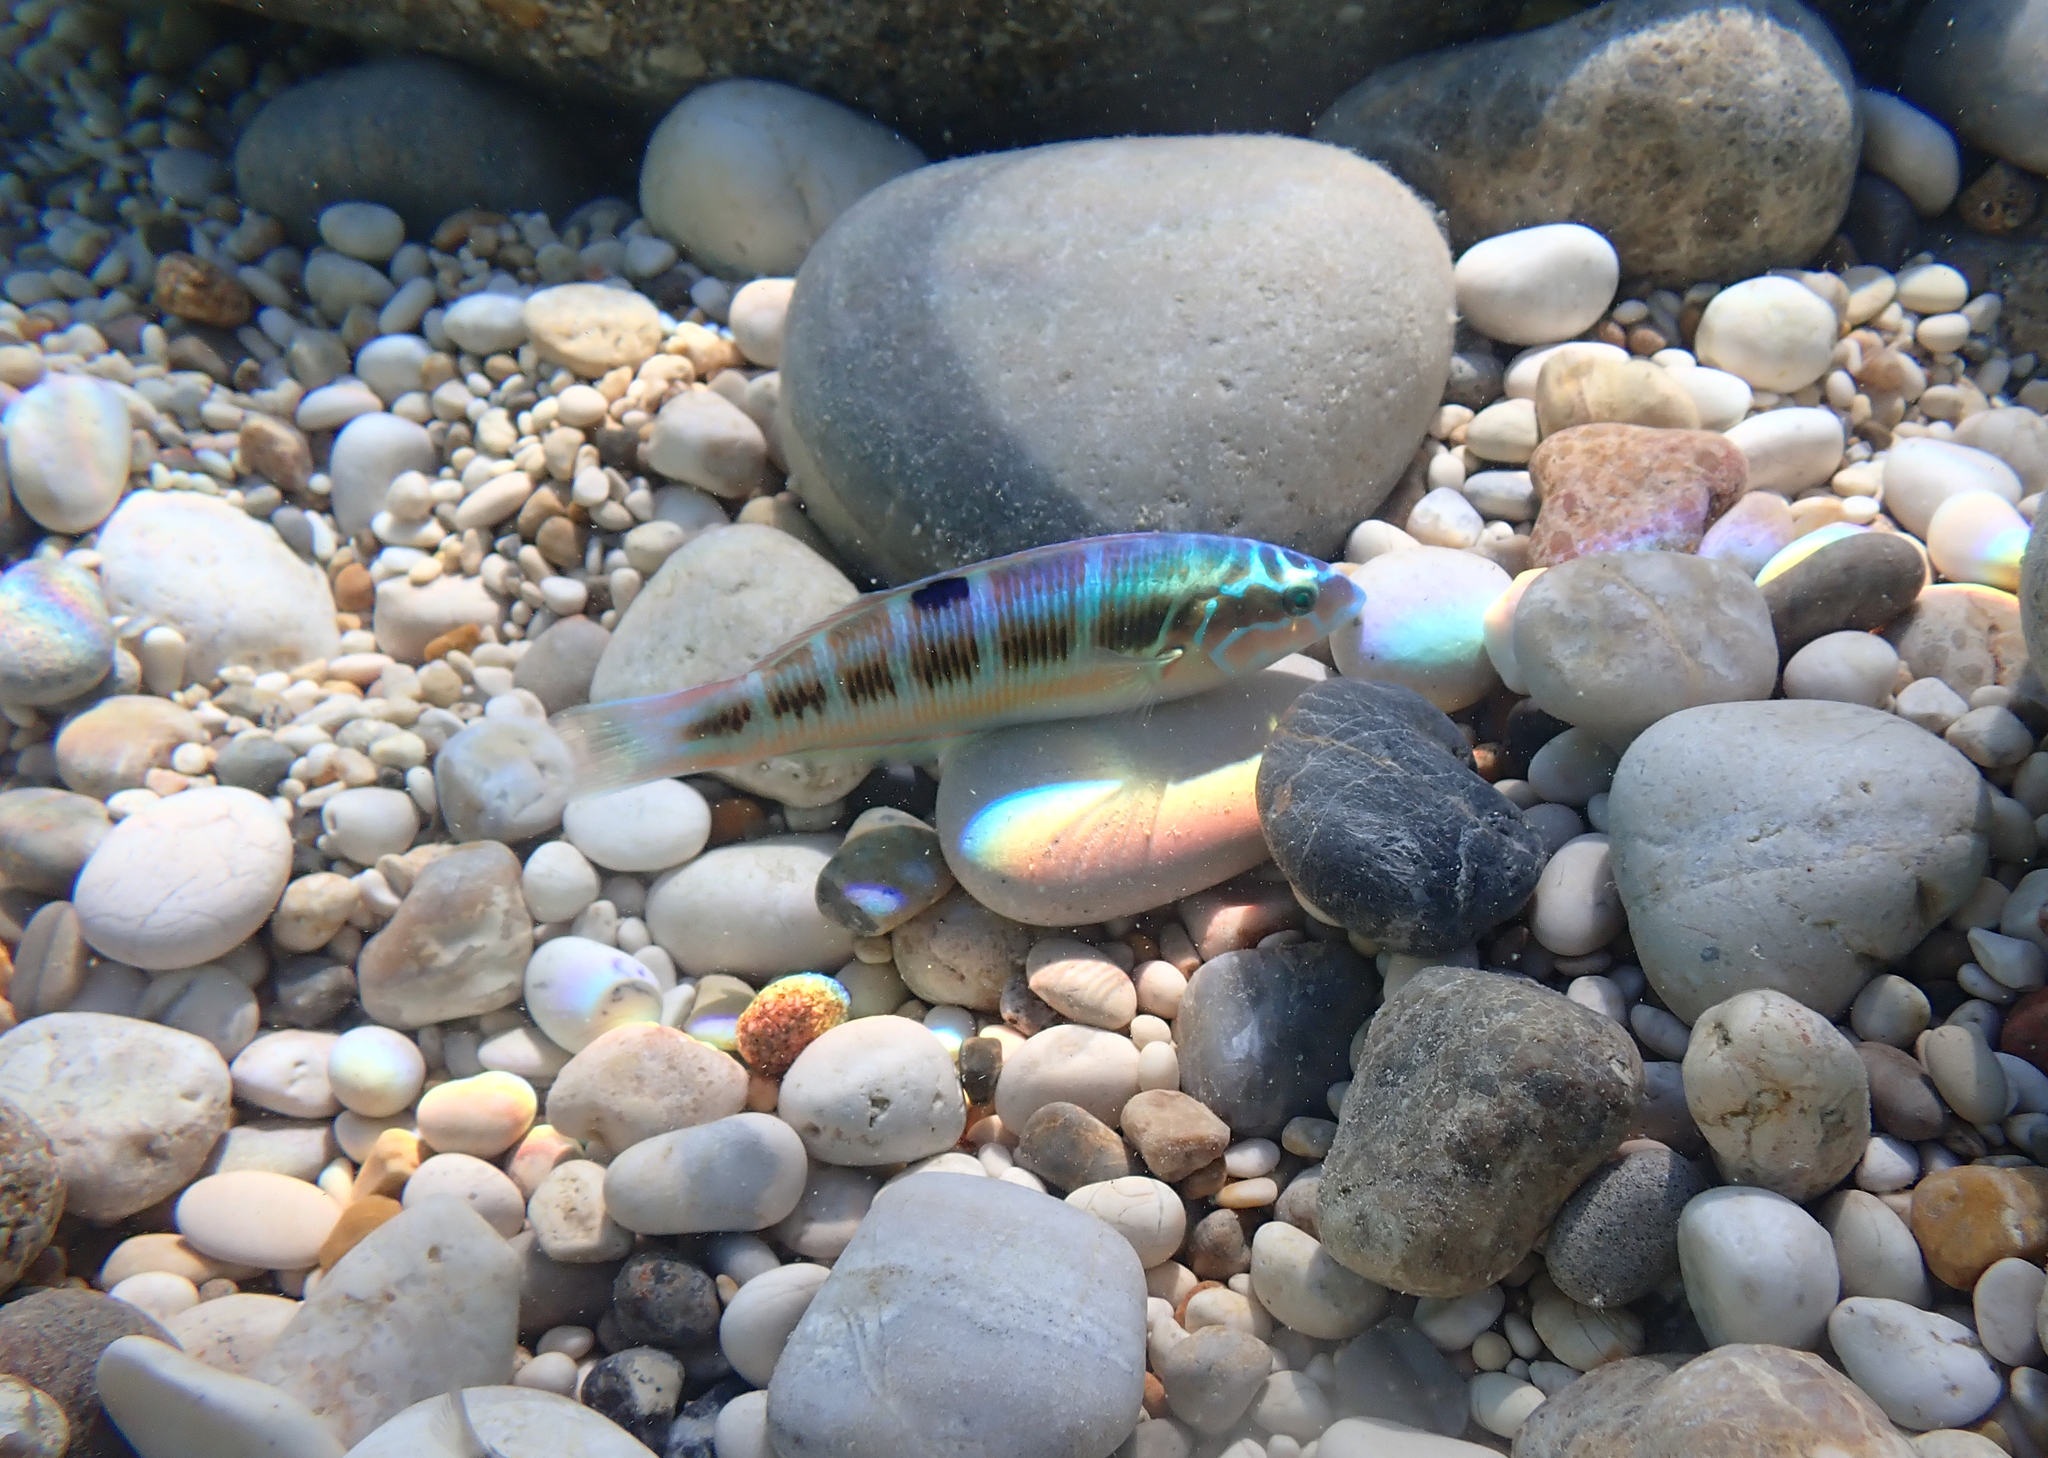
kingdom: Animalia
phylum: Chordata
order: Perciformes
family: Labridae
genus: Thalassoma
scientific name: Thalassoma pavo
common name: Ornate wrasse
